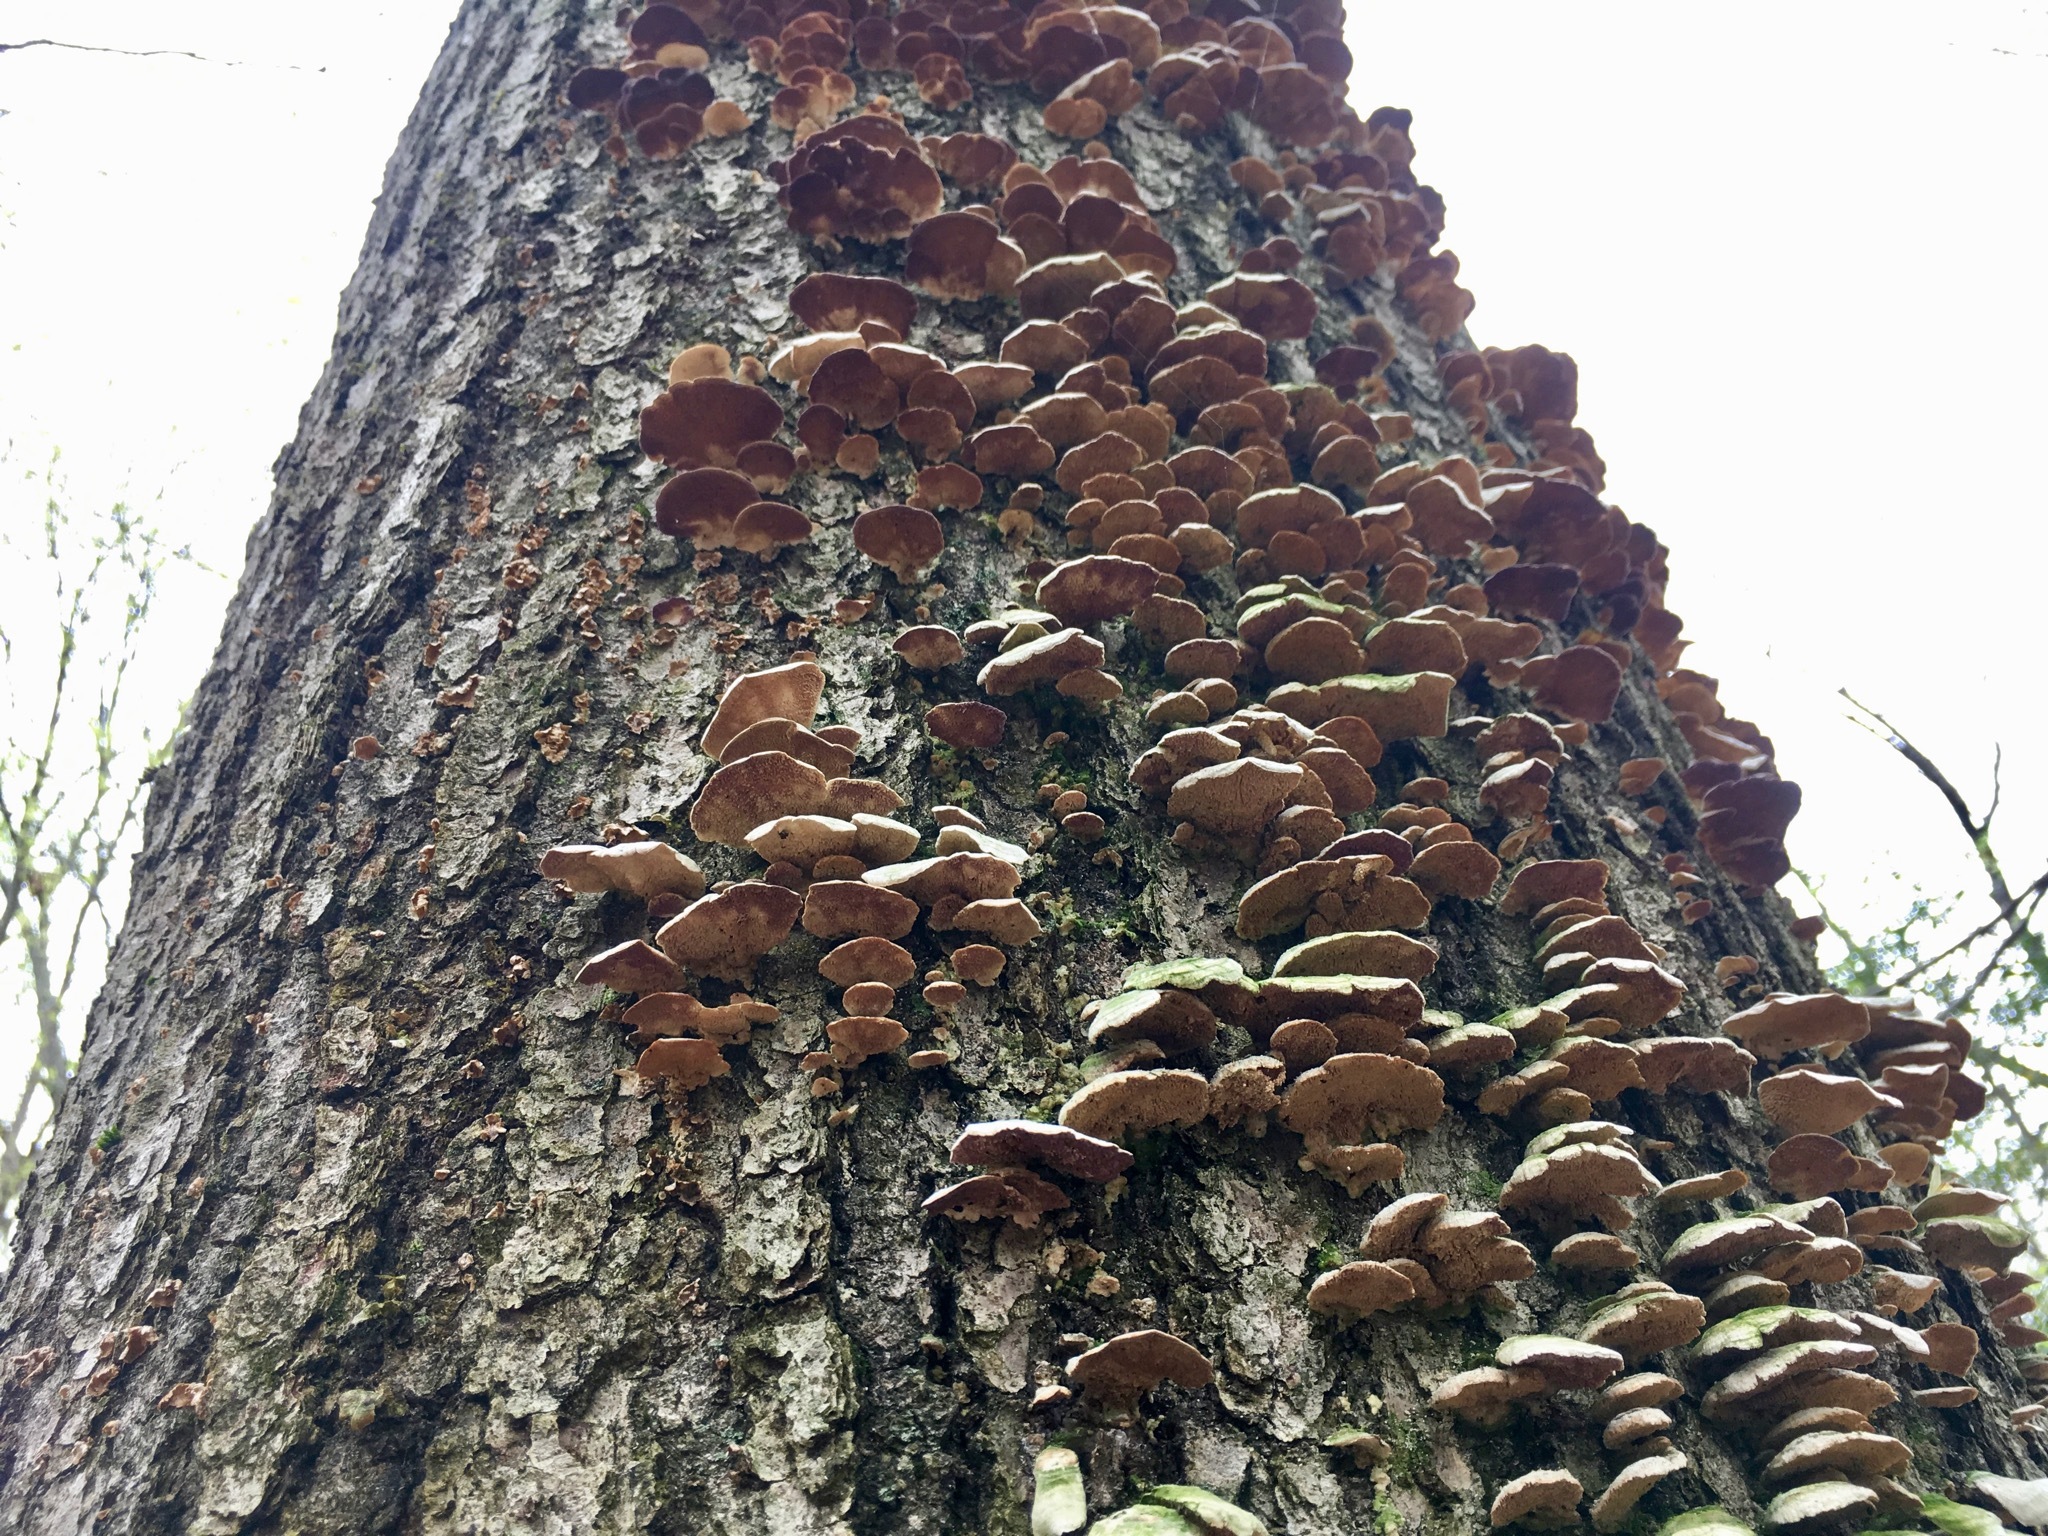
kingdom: Fungi
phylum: Basidiomycota
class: Agaricomycetes
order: Hymenochaetales
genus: Trichaptum
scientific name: Trichaptum biforme
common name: Violet-toothed polypore
